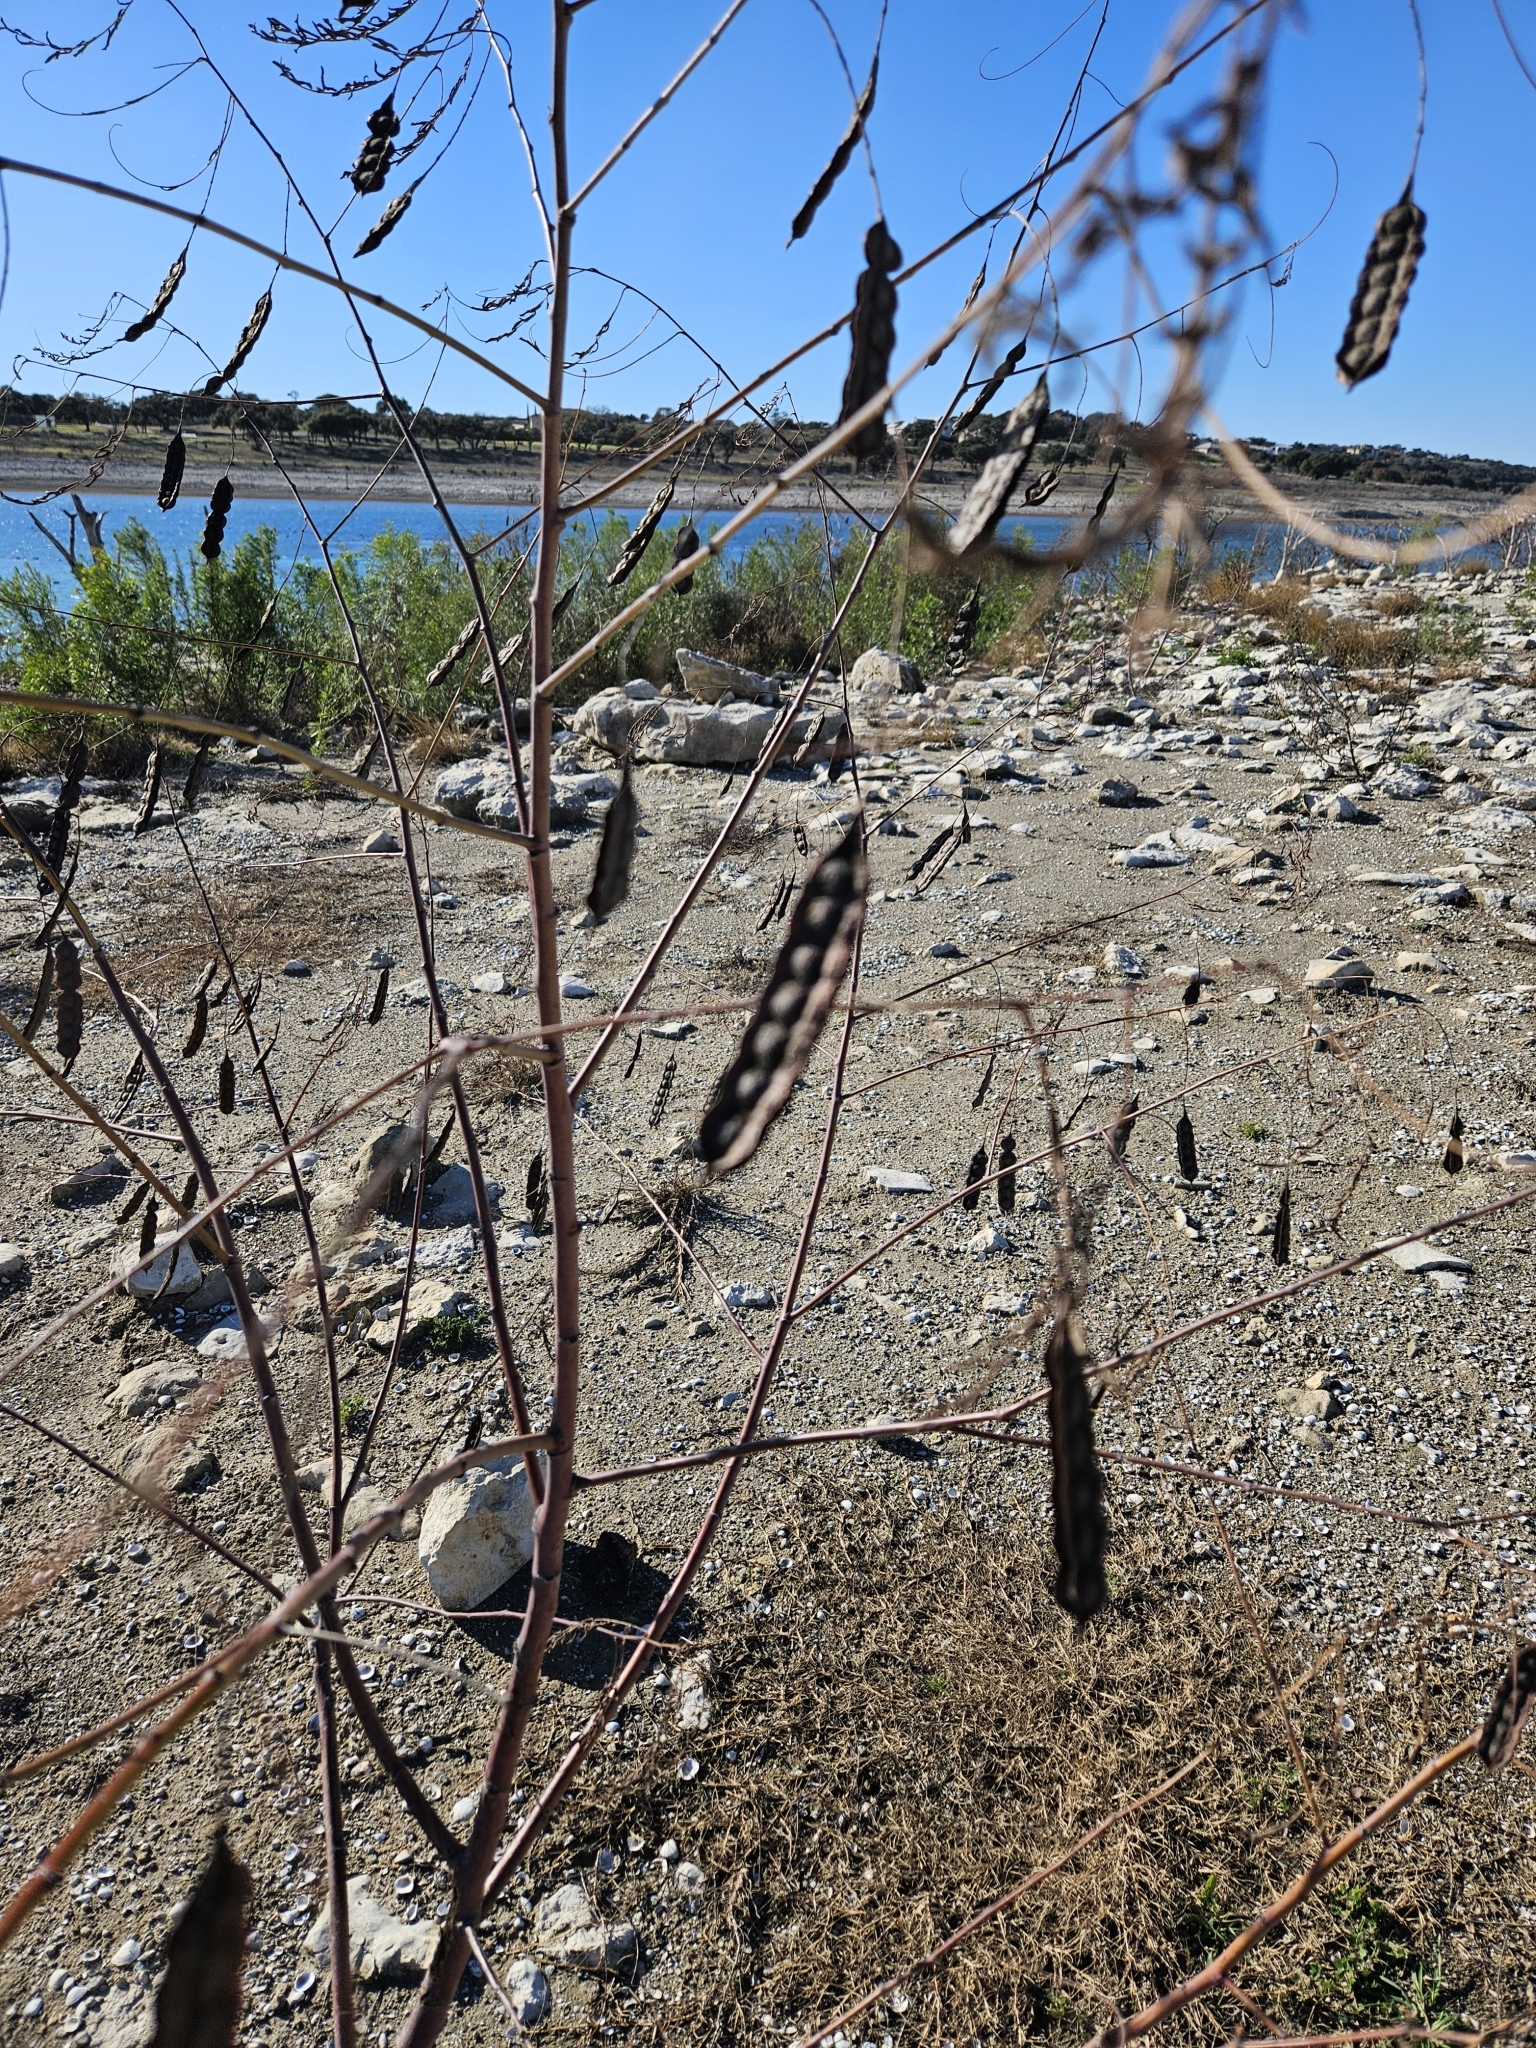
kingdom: Plantae
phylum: Tracheophyta
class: Magnoliopsida
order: Fabales
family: Fabaceae
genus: Sesbania
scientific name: Sesbania drummondii
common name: Poison-bean
